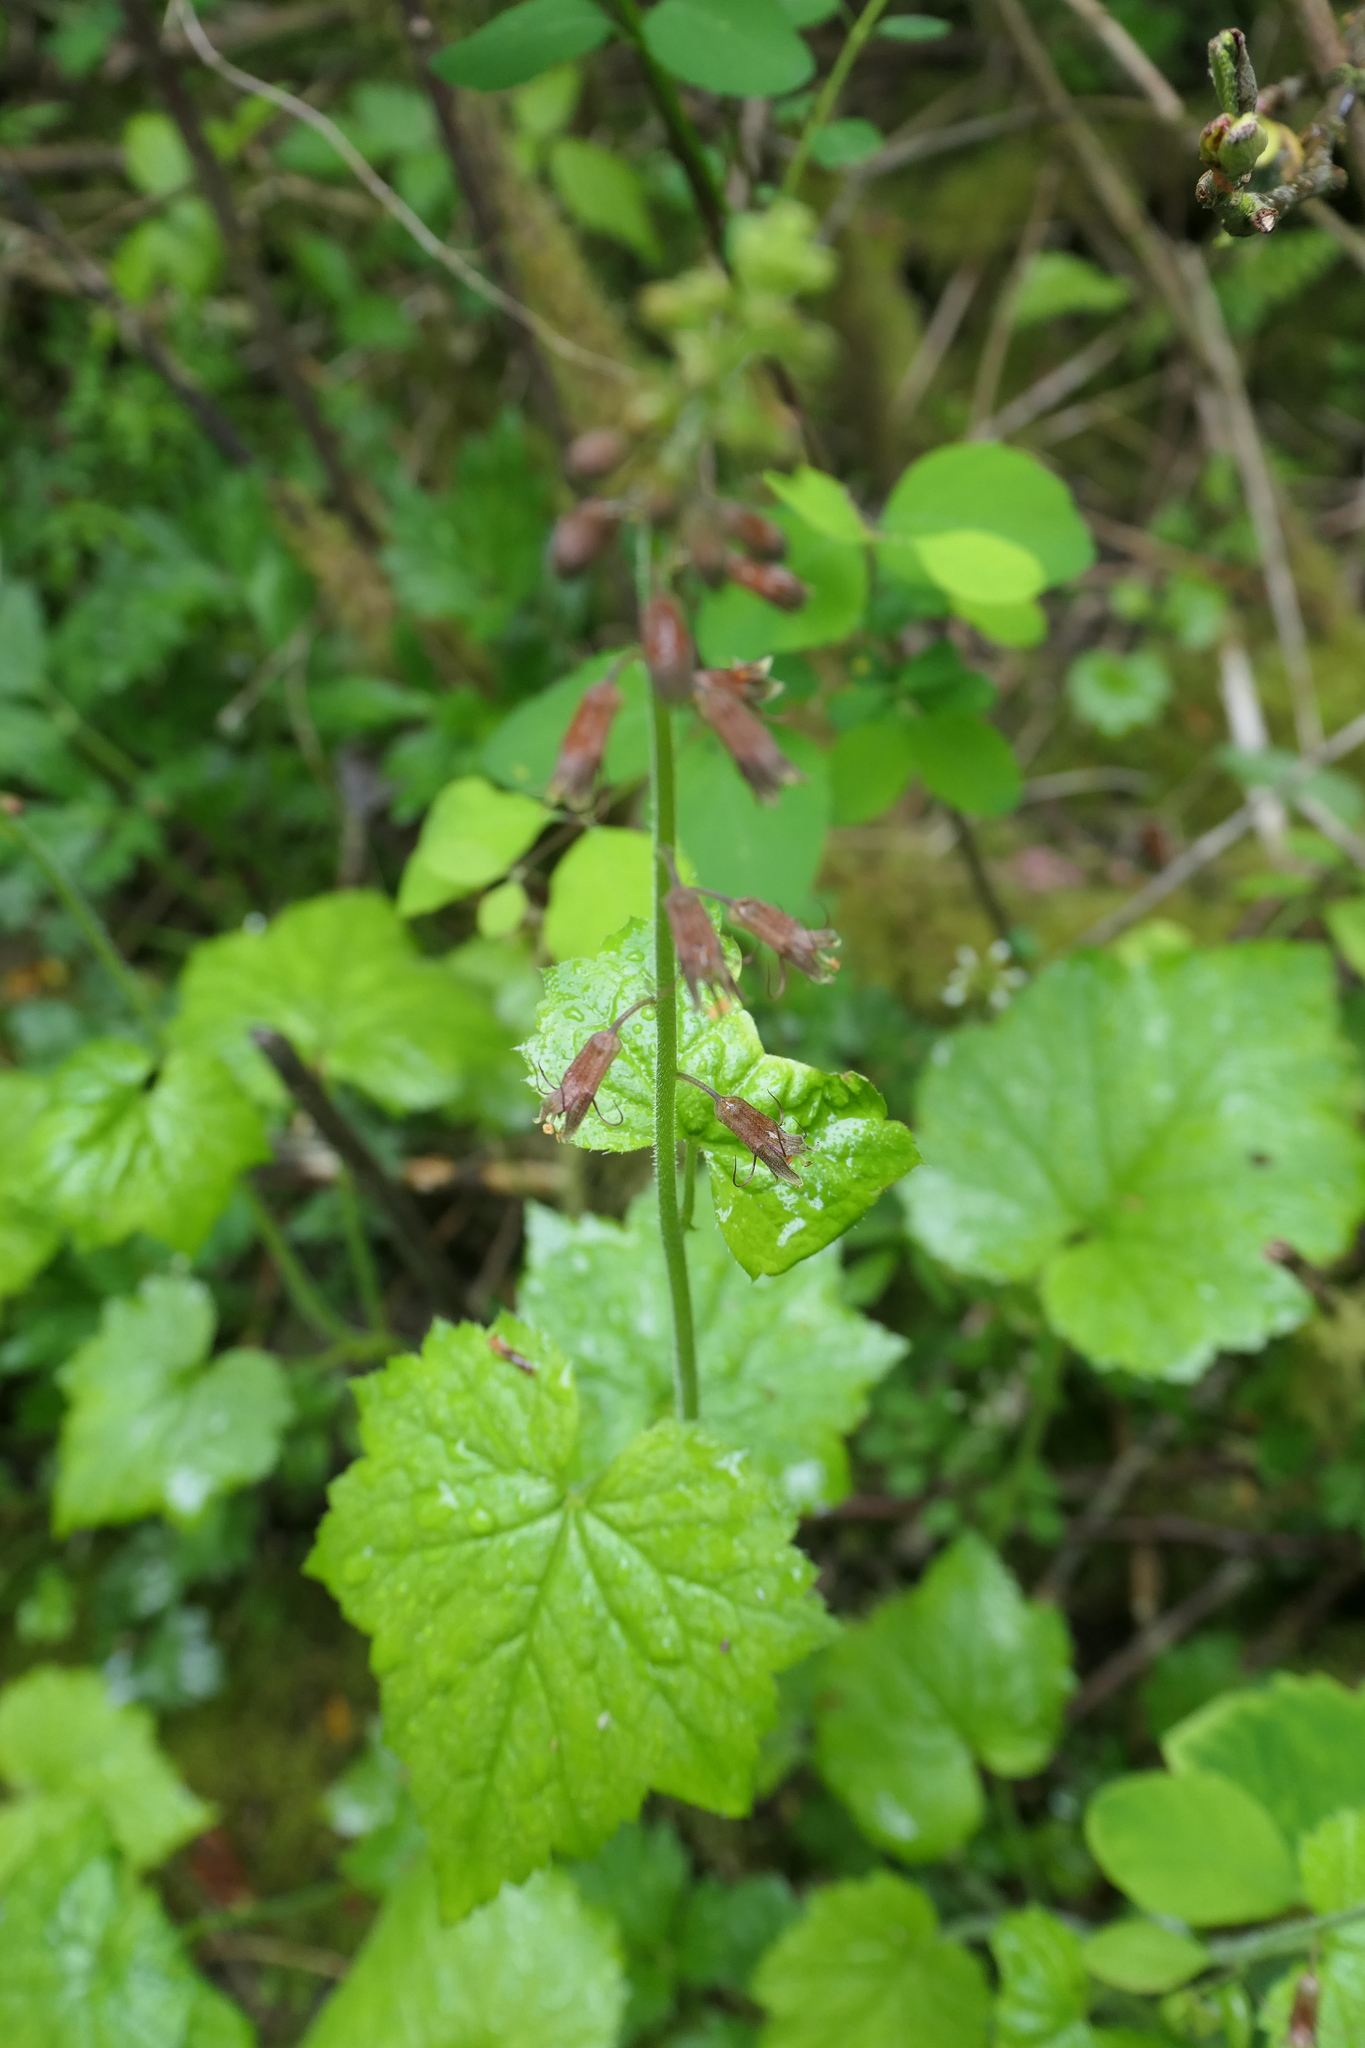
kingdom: Plantae
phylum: Tracheophyta
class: Magnoliopsida
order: Saxifragales
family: Saxifragaceae
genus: Tolmiea
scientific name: Tolmiea menziesii
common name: Pick-a-back-plant
